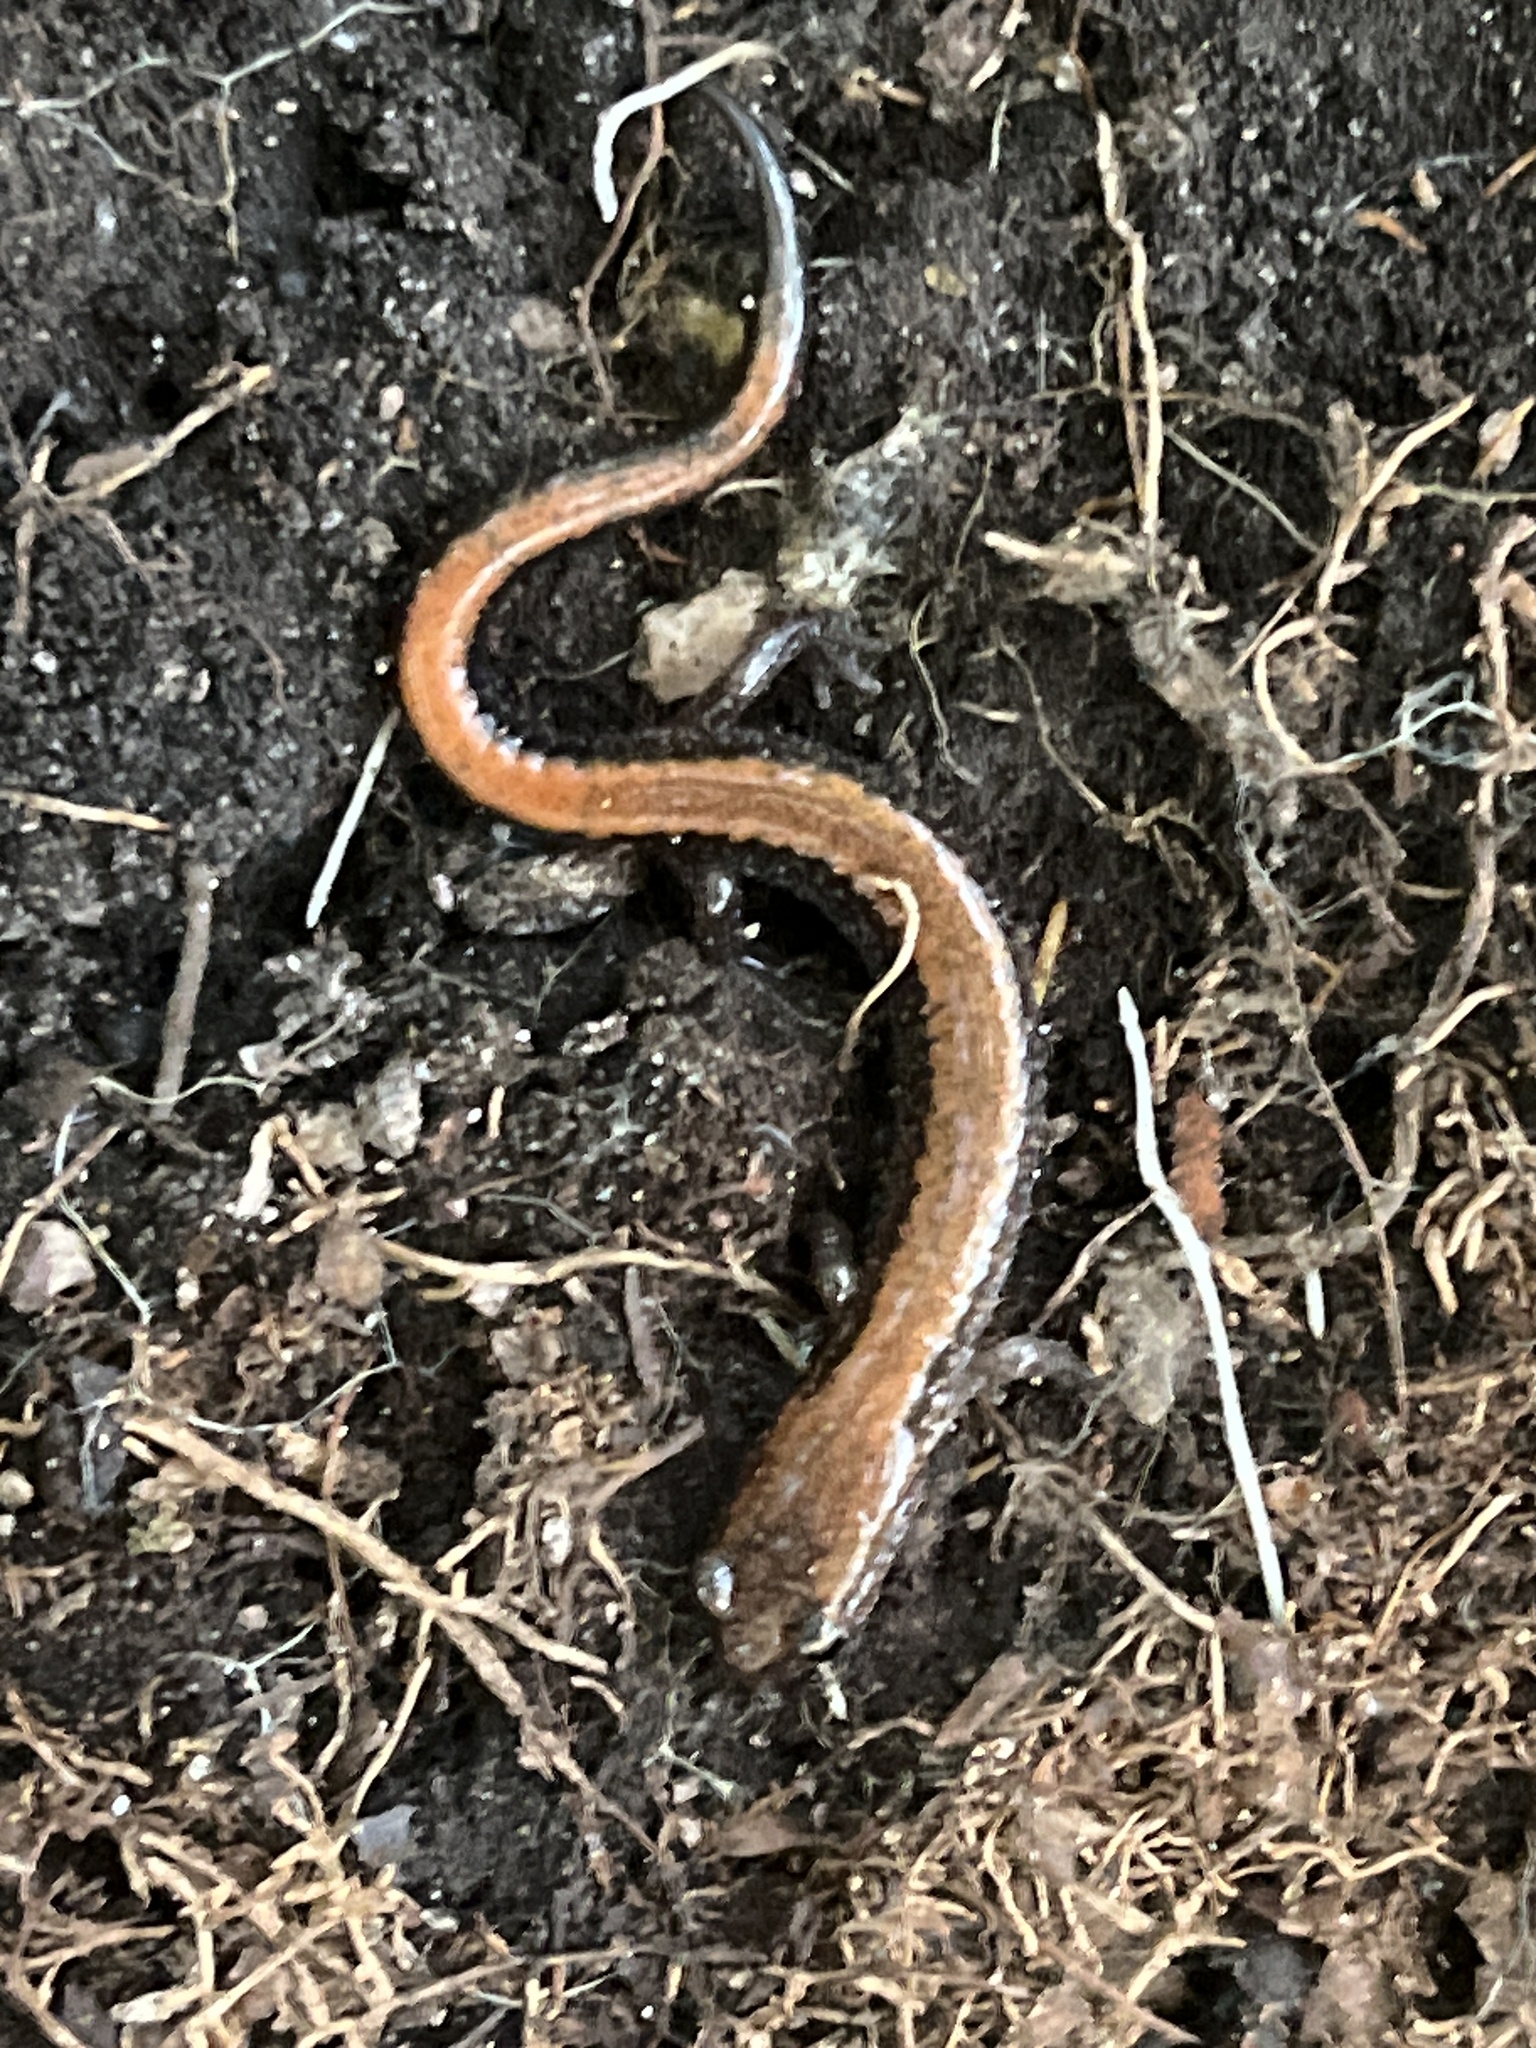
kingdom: Animalia
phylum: Chordata
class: Amphibia
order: Caudata
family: Plethodontidae
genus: Plethodon
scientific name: Plethodon cinereus
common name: Redback salamander
